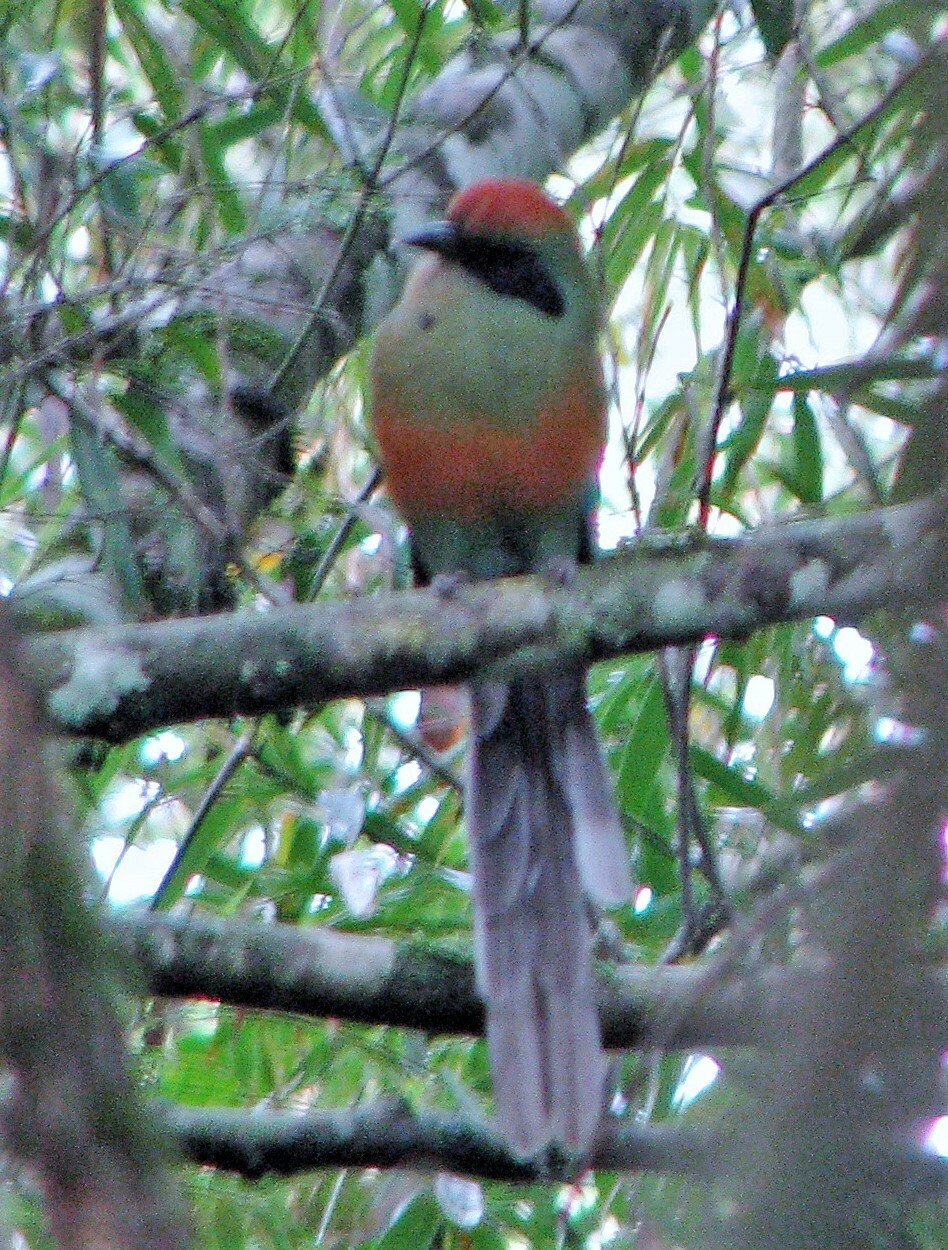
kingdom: Animalia
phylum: Chordata
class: Aves
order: Coraciiformes
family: Momotidae
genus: Baryphthengus
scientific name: Baryphthengus ruficapillus
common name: Rufous-capped motmot
